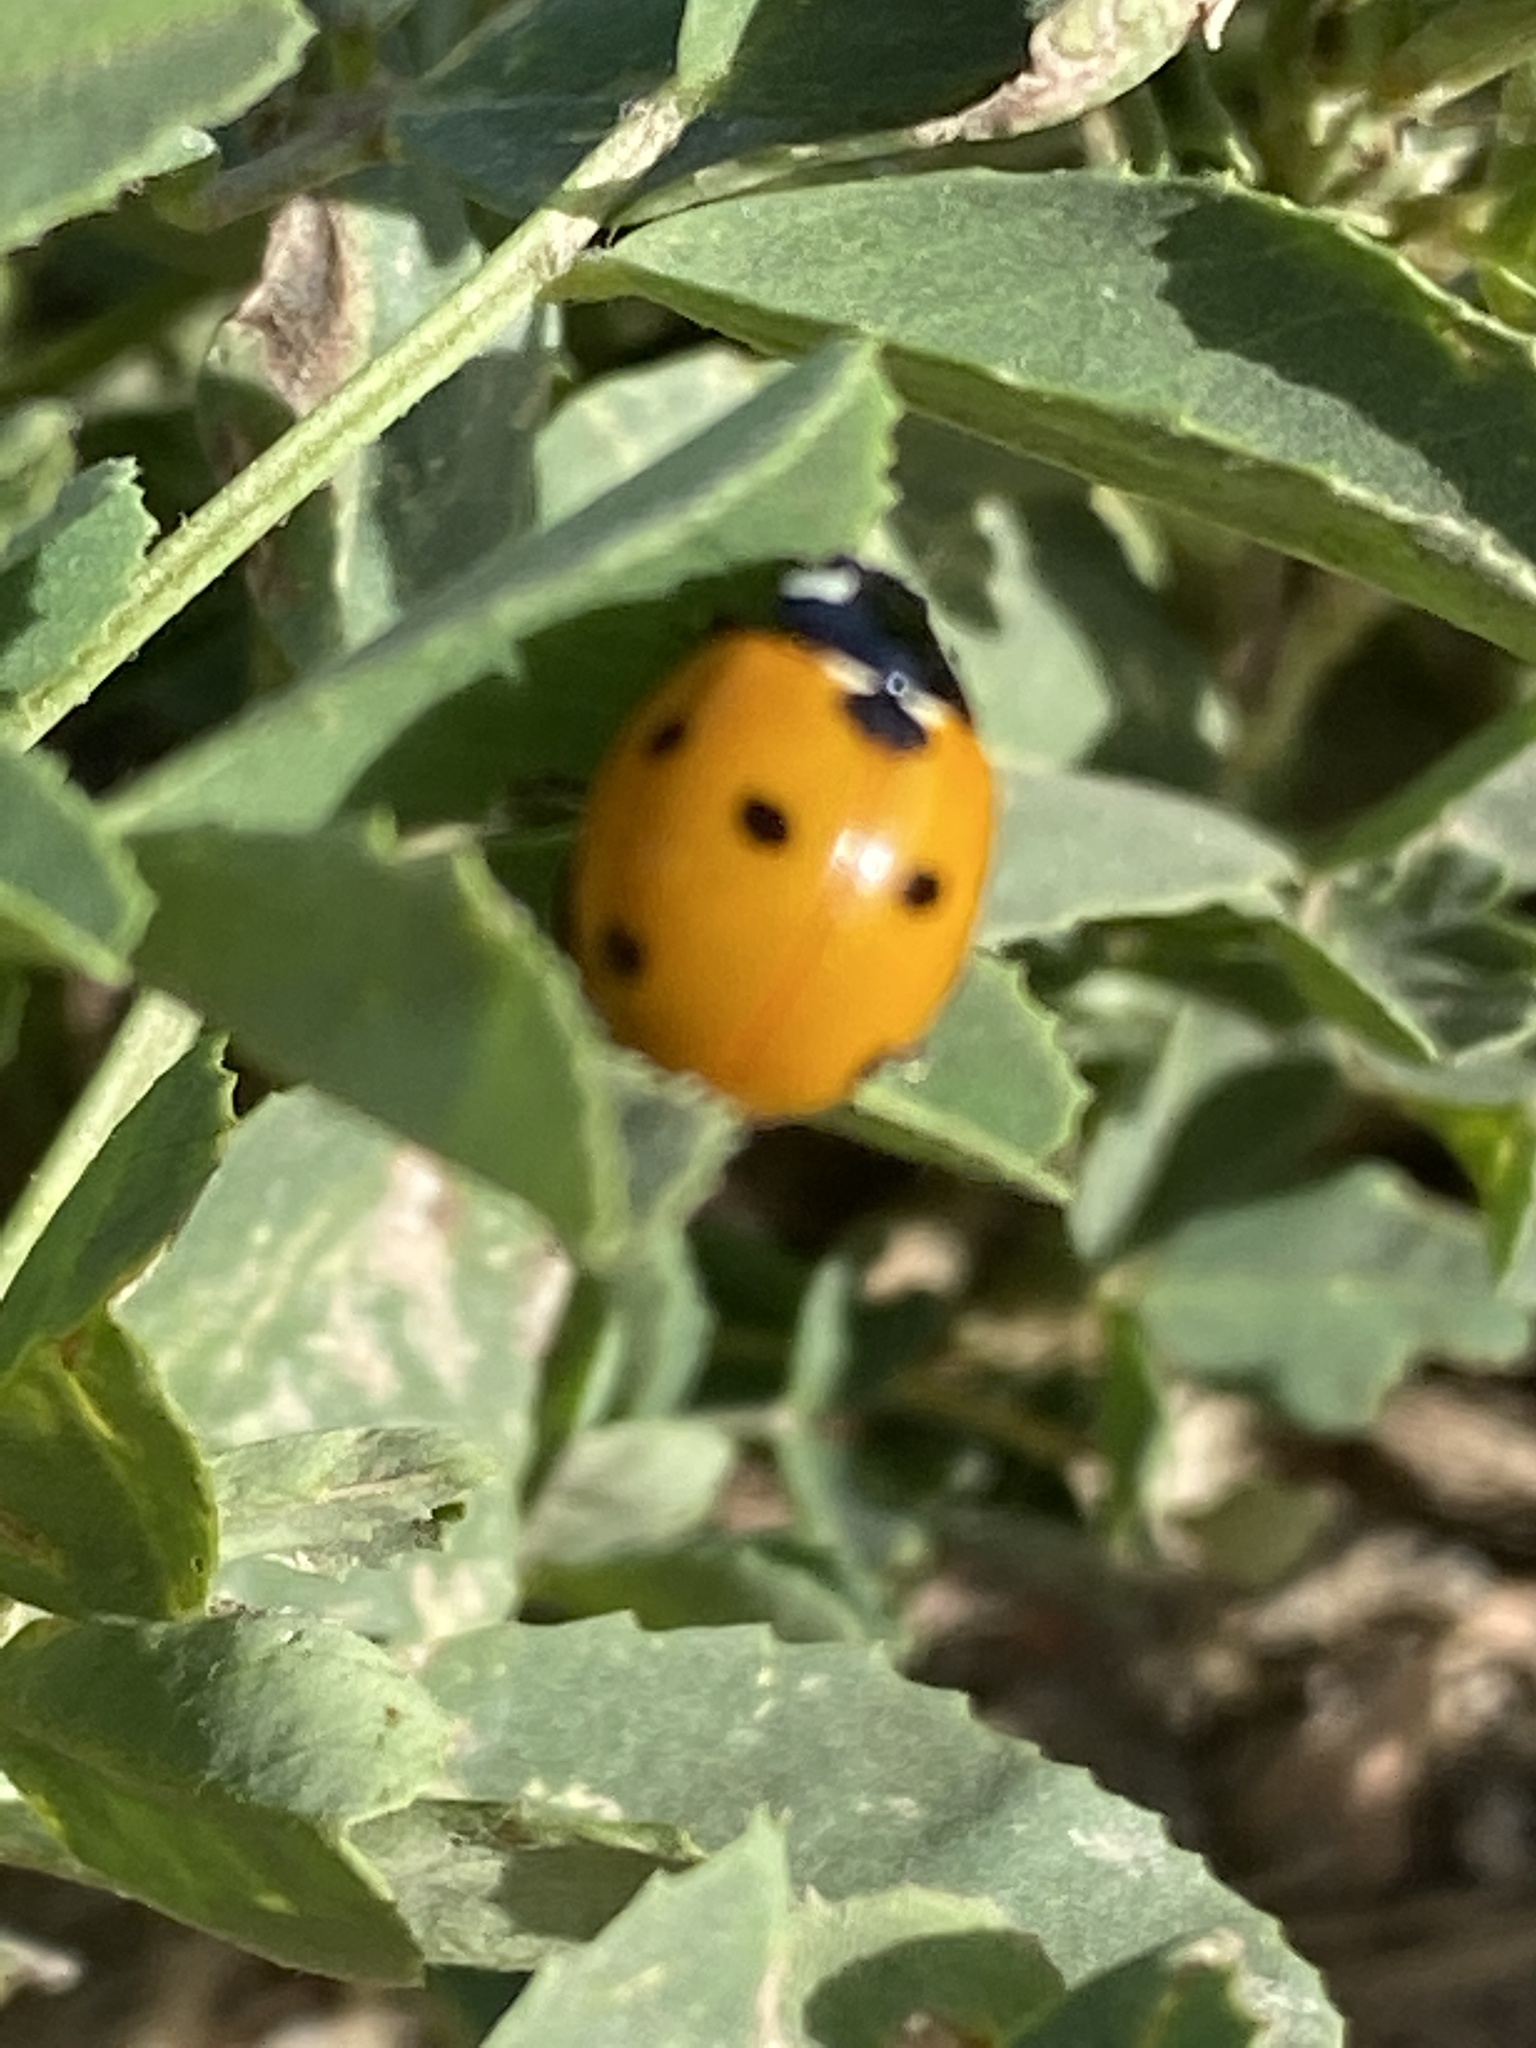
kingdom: Animalia
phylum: Arthropoda
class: Insecta
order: Coleoptera
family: Coccinellidae
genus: Coccinella
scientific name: Coccinella septempunctata
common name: Sevenspotted lady beetle
